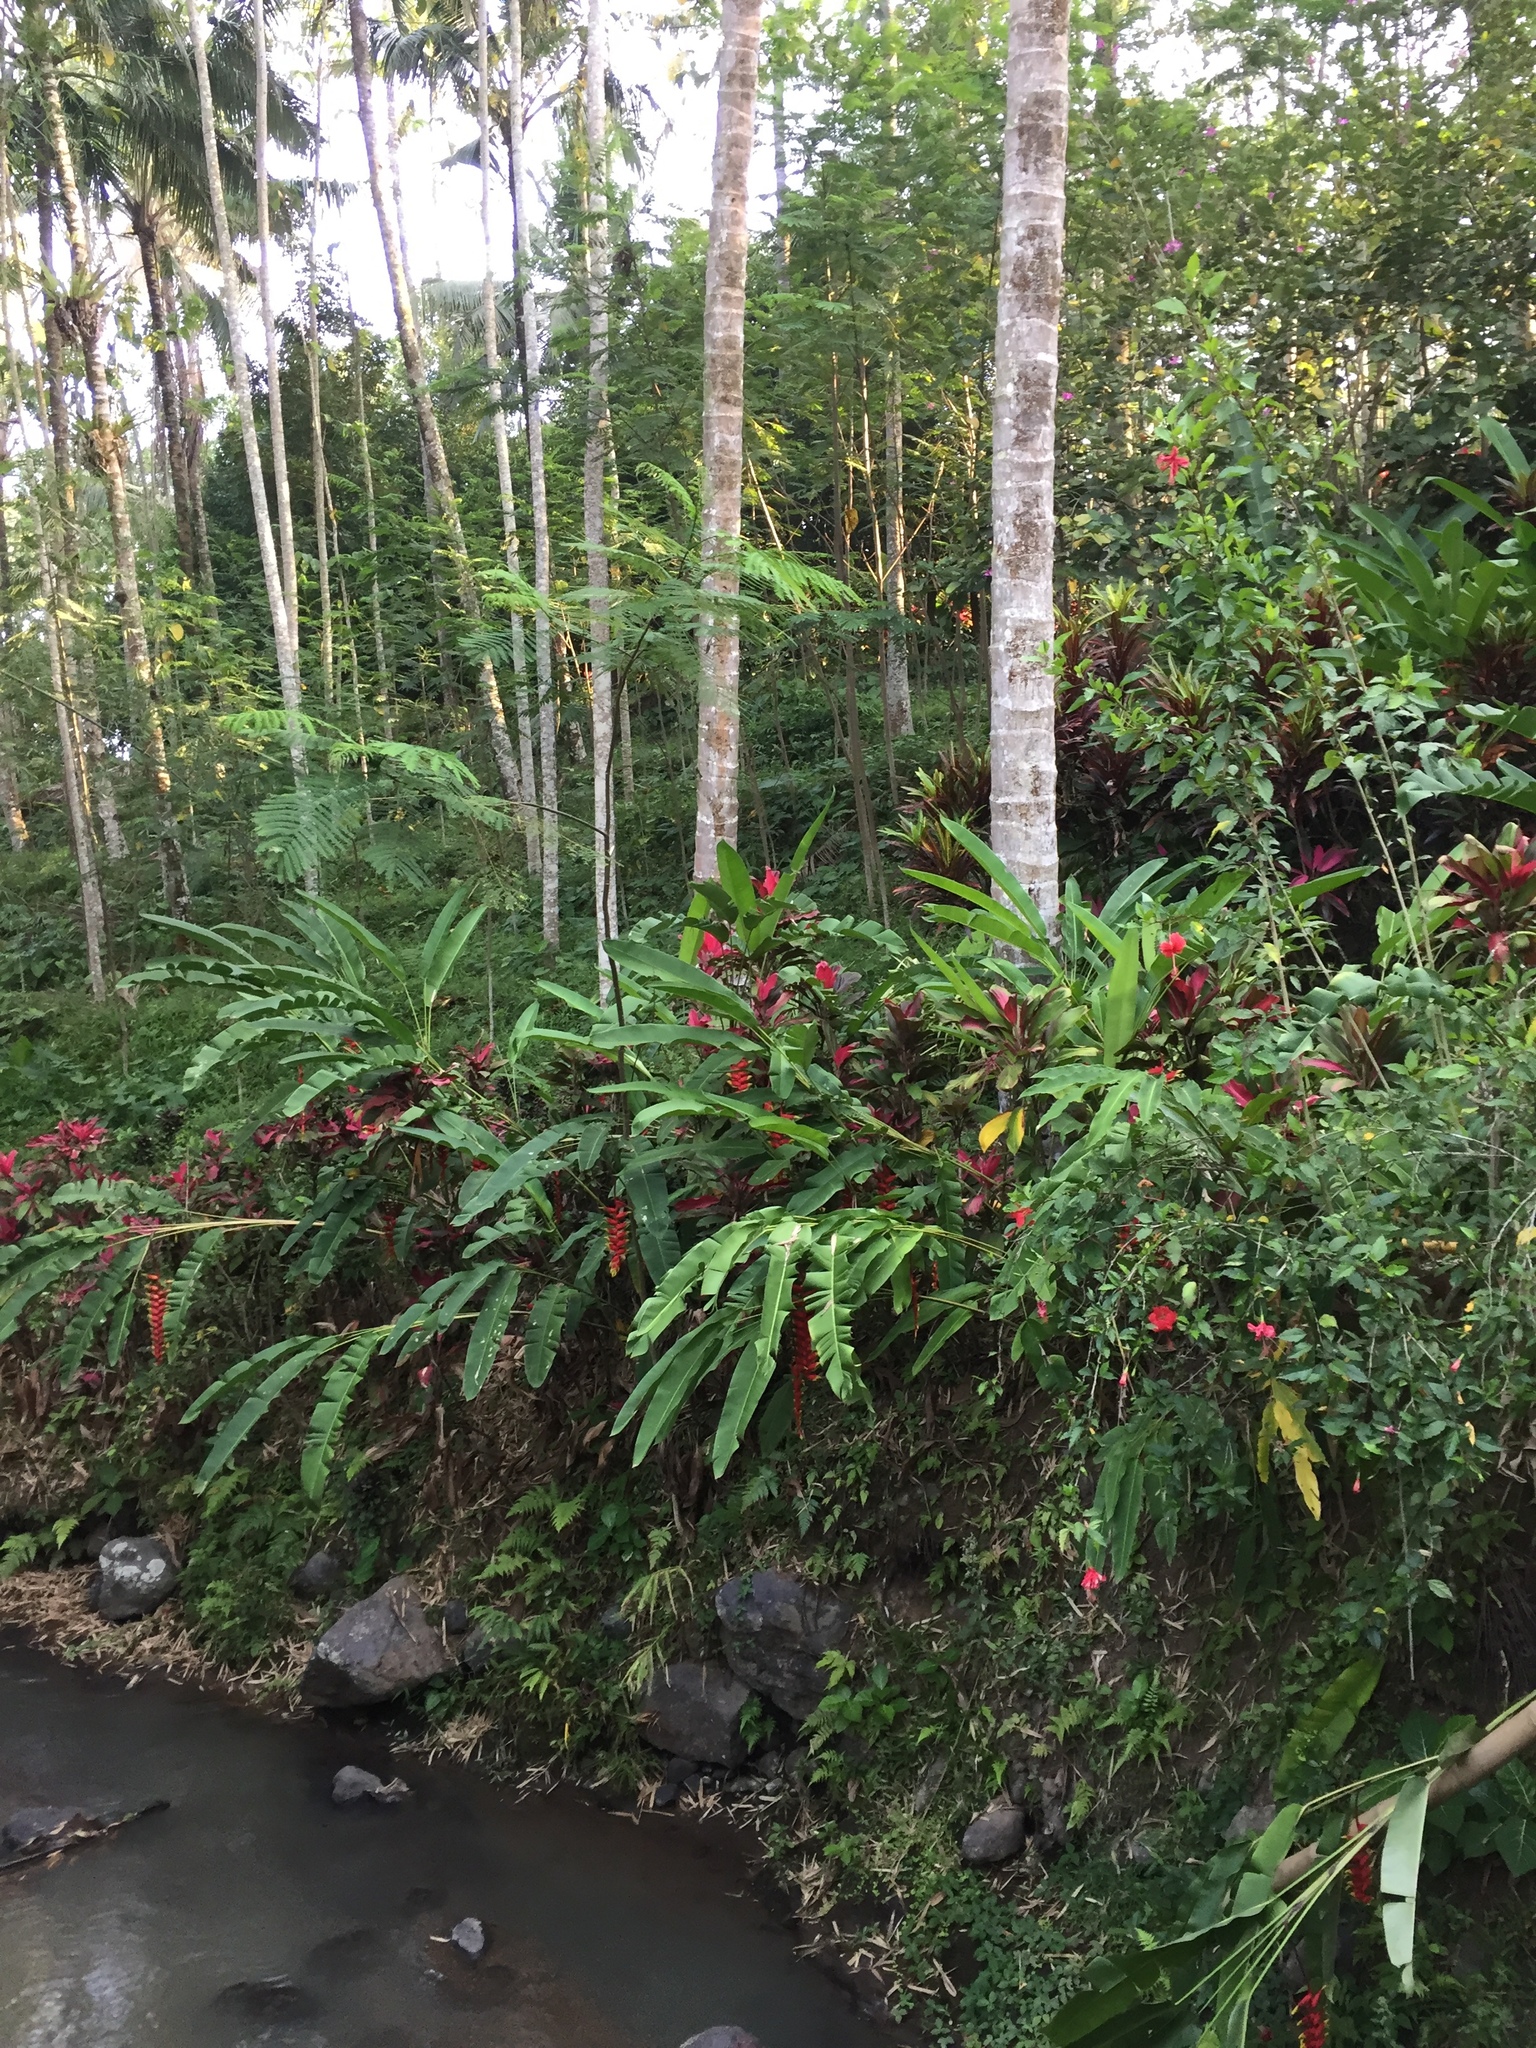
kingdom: Plantae
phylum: Tracheophyta
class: Liliopsida
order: Zingiberales
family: Heliconiaceae
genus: Heliconia
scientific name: Heliconia rostrata
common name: False bird of paradise
